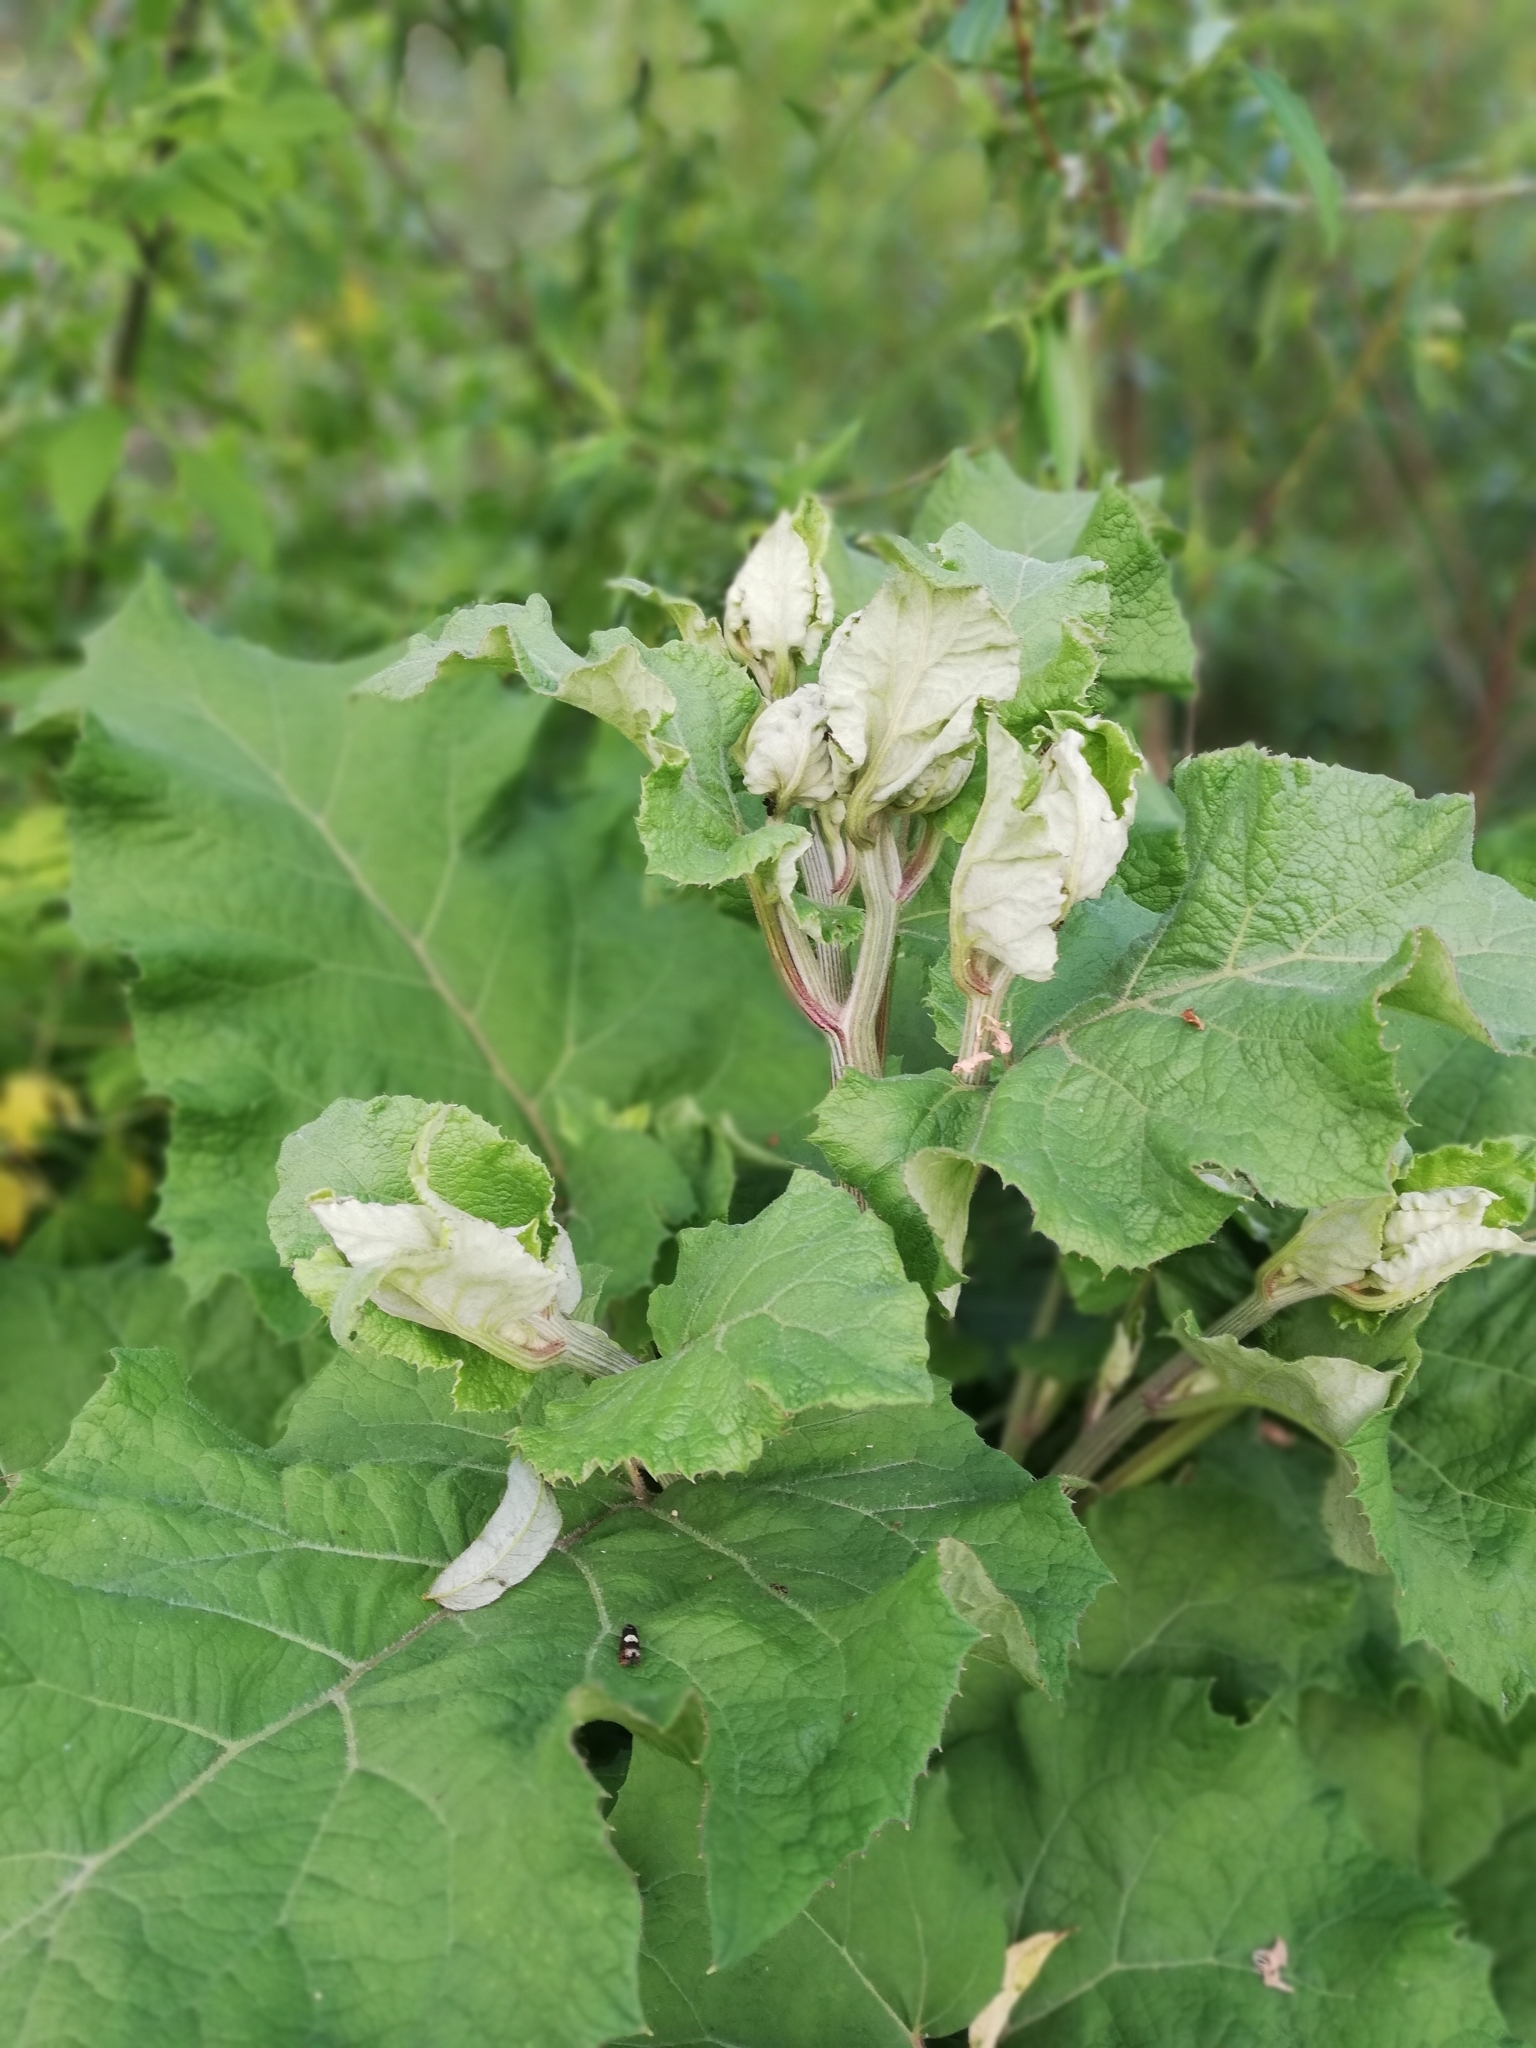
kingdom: Plantae
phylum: Tracheophyta
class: Magnoliopsida
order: Asterales
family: Asteraceae
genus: Arctium
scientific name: Arctium tomentosum
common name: Woolly burdock
